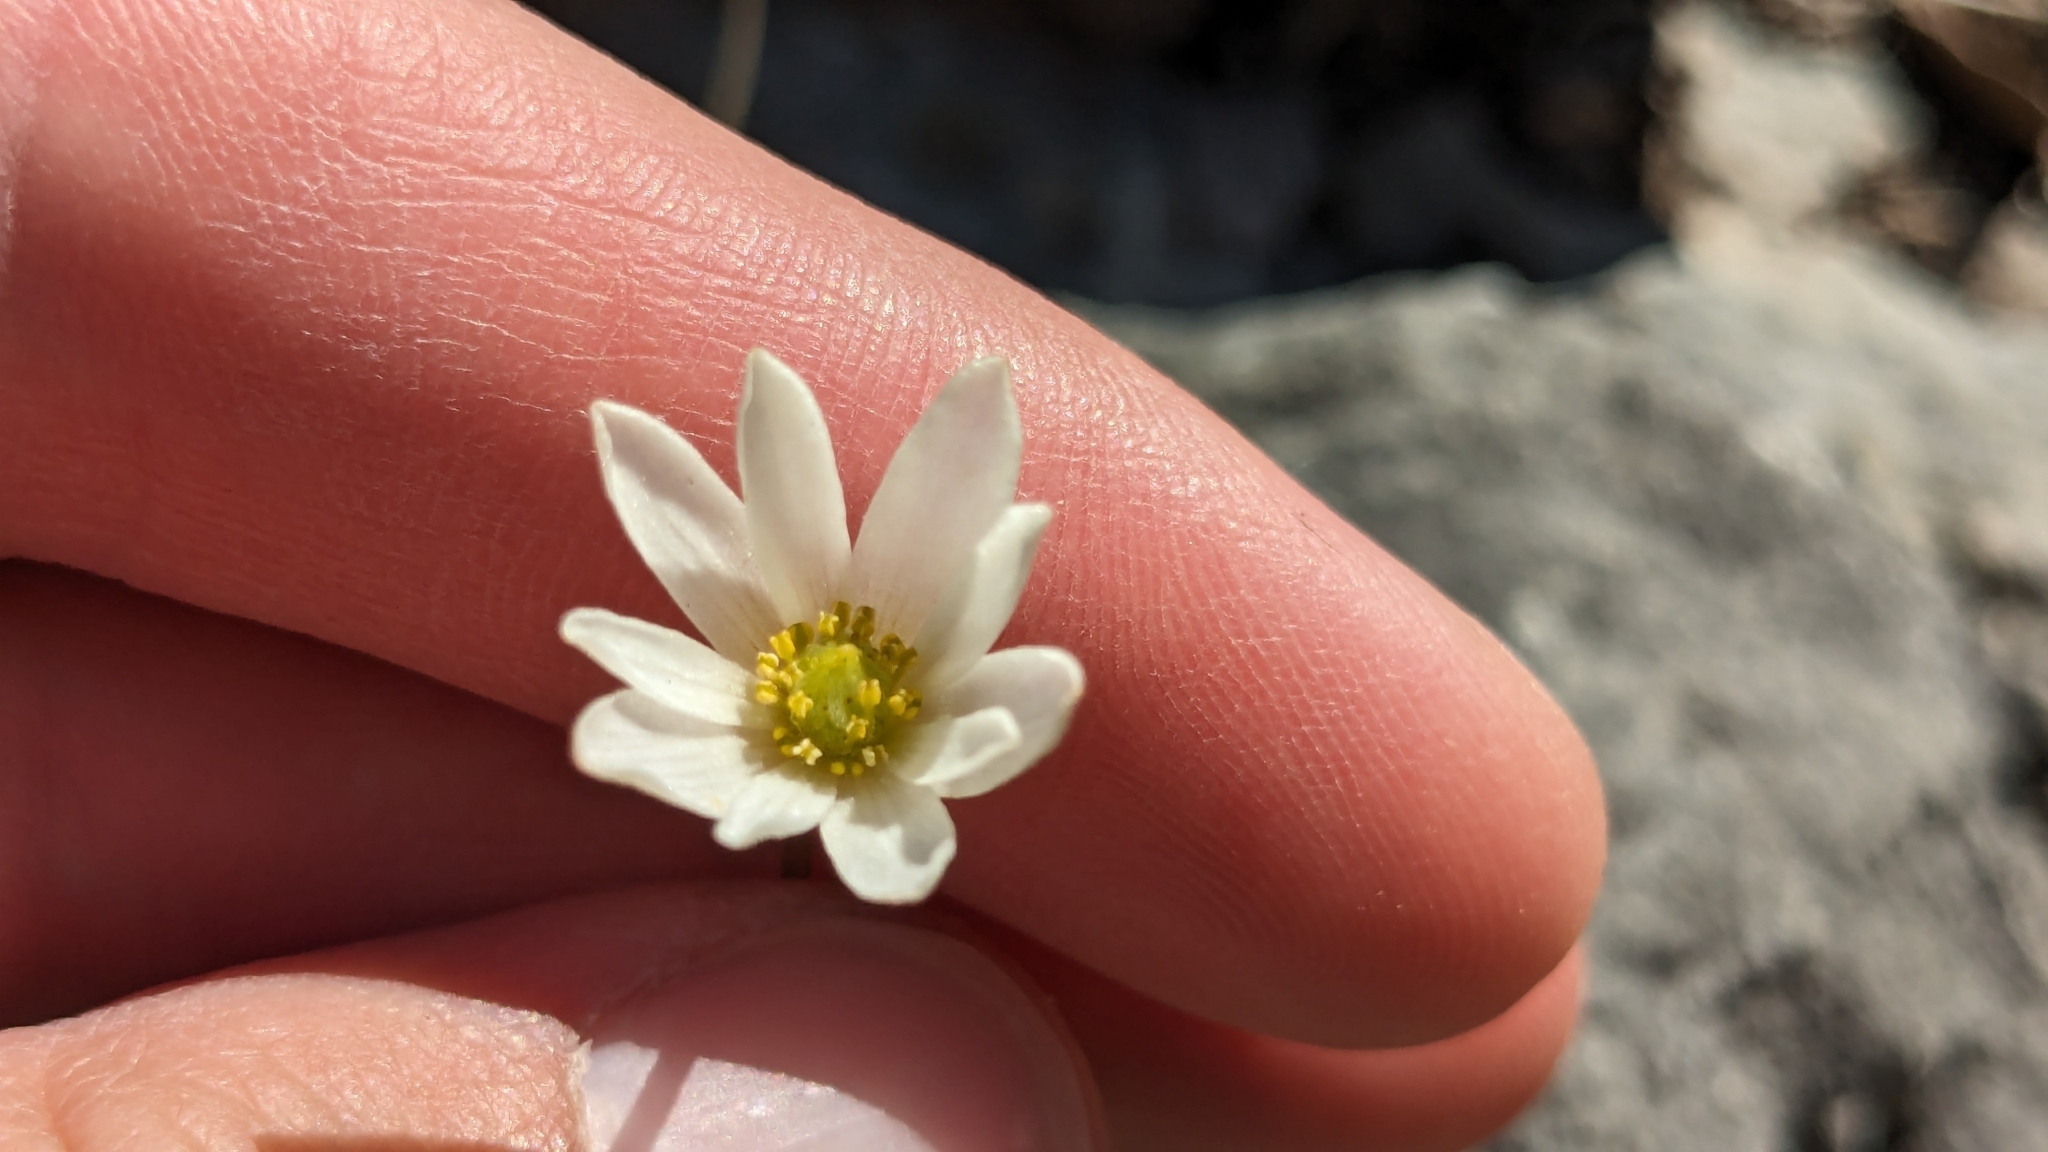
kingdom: Plantae
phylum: Tracheophyta
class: Magnoliopsida
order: Ranunculales
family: Ranunculaceae
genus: Anemone
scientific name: Anemone edwardsiana
